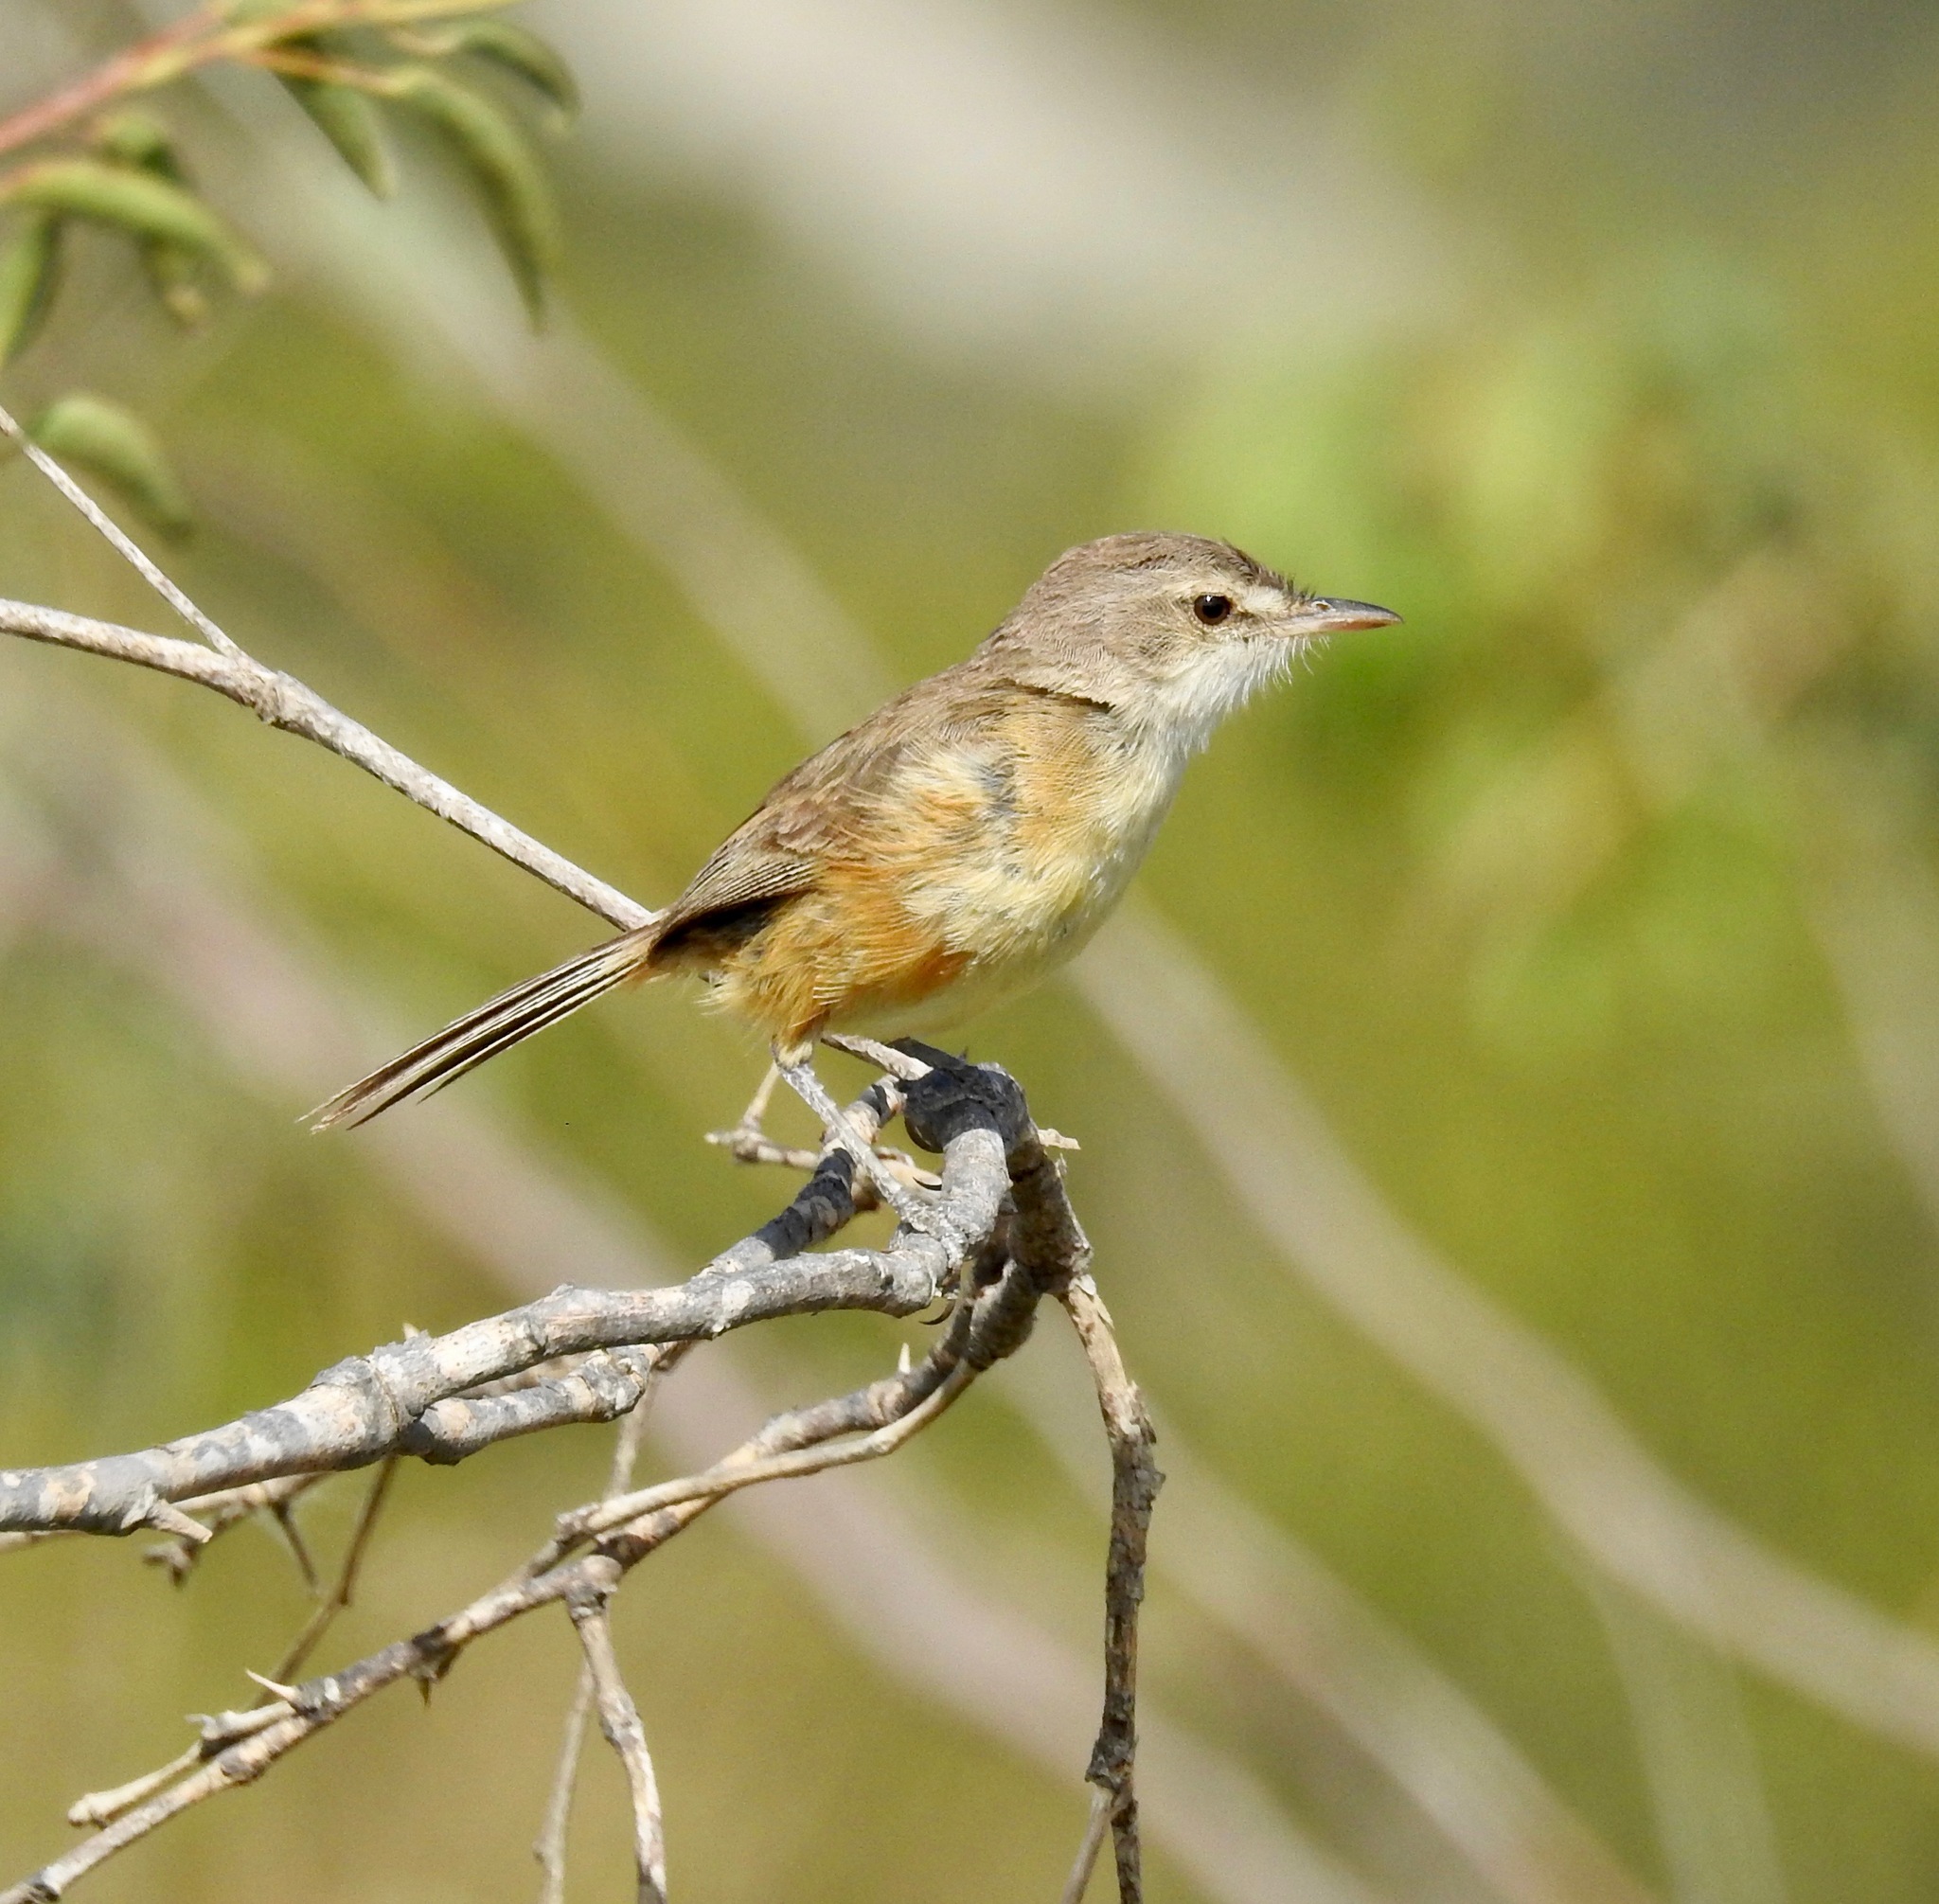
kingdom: Animalia
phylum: Chordata
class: Aves
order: Passeriformes
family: Tyrannidae
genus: Euscarthmus
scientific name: Euscarthmus rufomarginatus
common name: Rufous-sided pygmy tyrant
